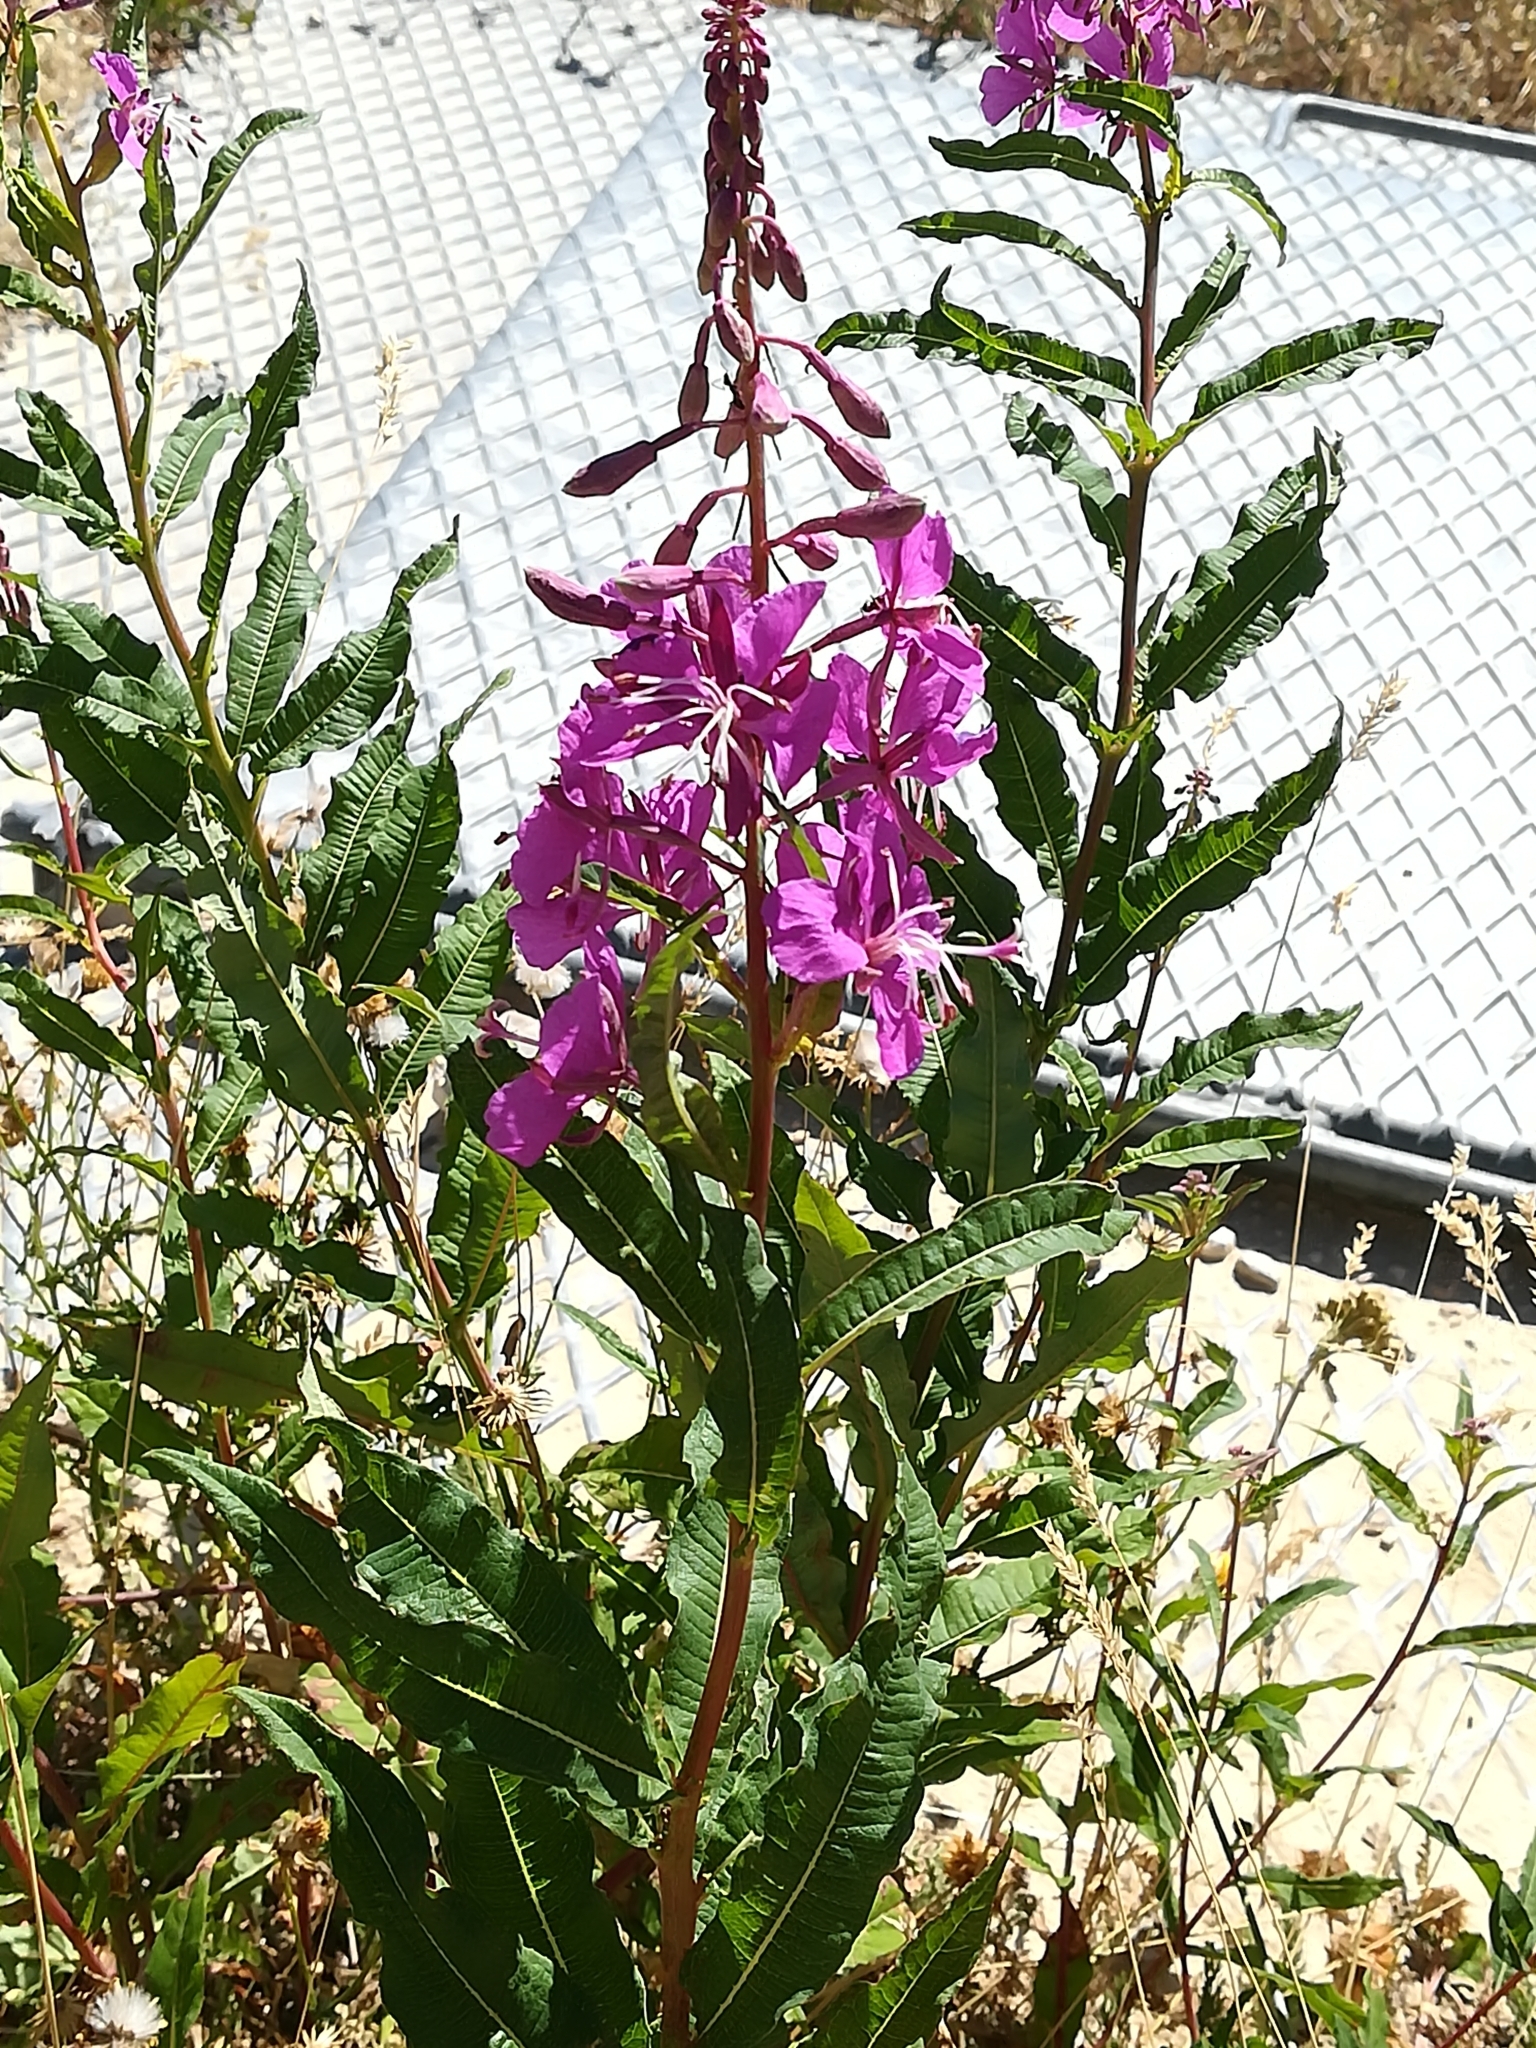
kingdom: Plantae
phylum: Tracheophyta
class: Magnoliopsida
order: Myrtales
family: Onagraceae
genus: Chamaenerion
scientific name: Chamaenerion angustifolium
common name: Fireweed
